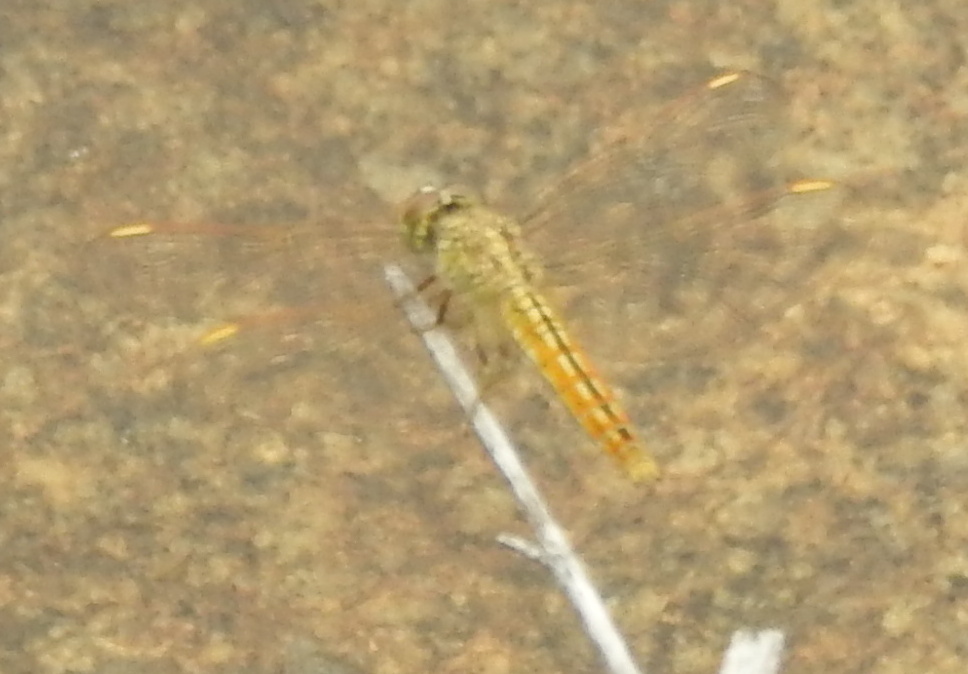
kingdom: Animalia
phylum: Arthropoda
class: Insecta
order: Odonata
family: Libellulidae
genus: Brachythemis
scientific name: Brachythemis contaminata
